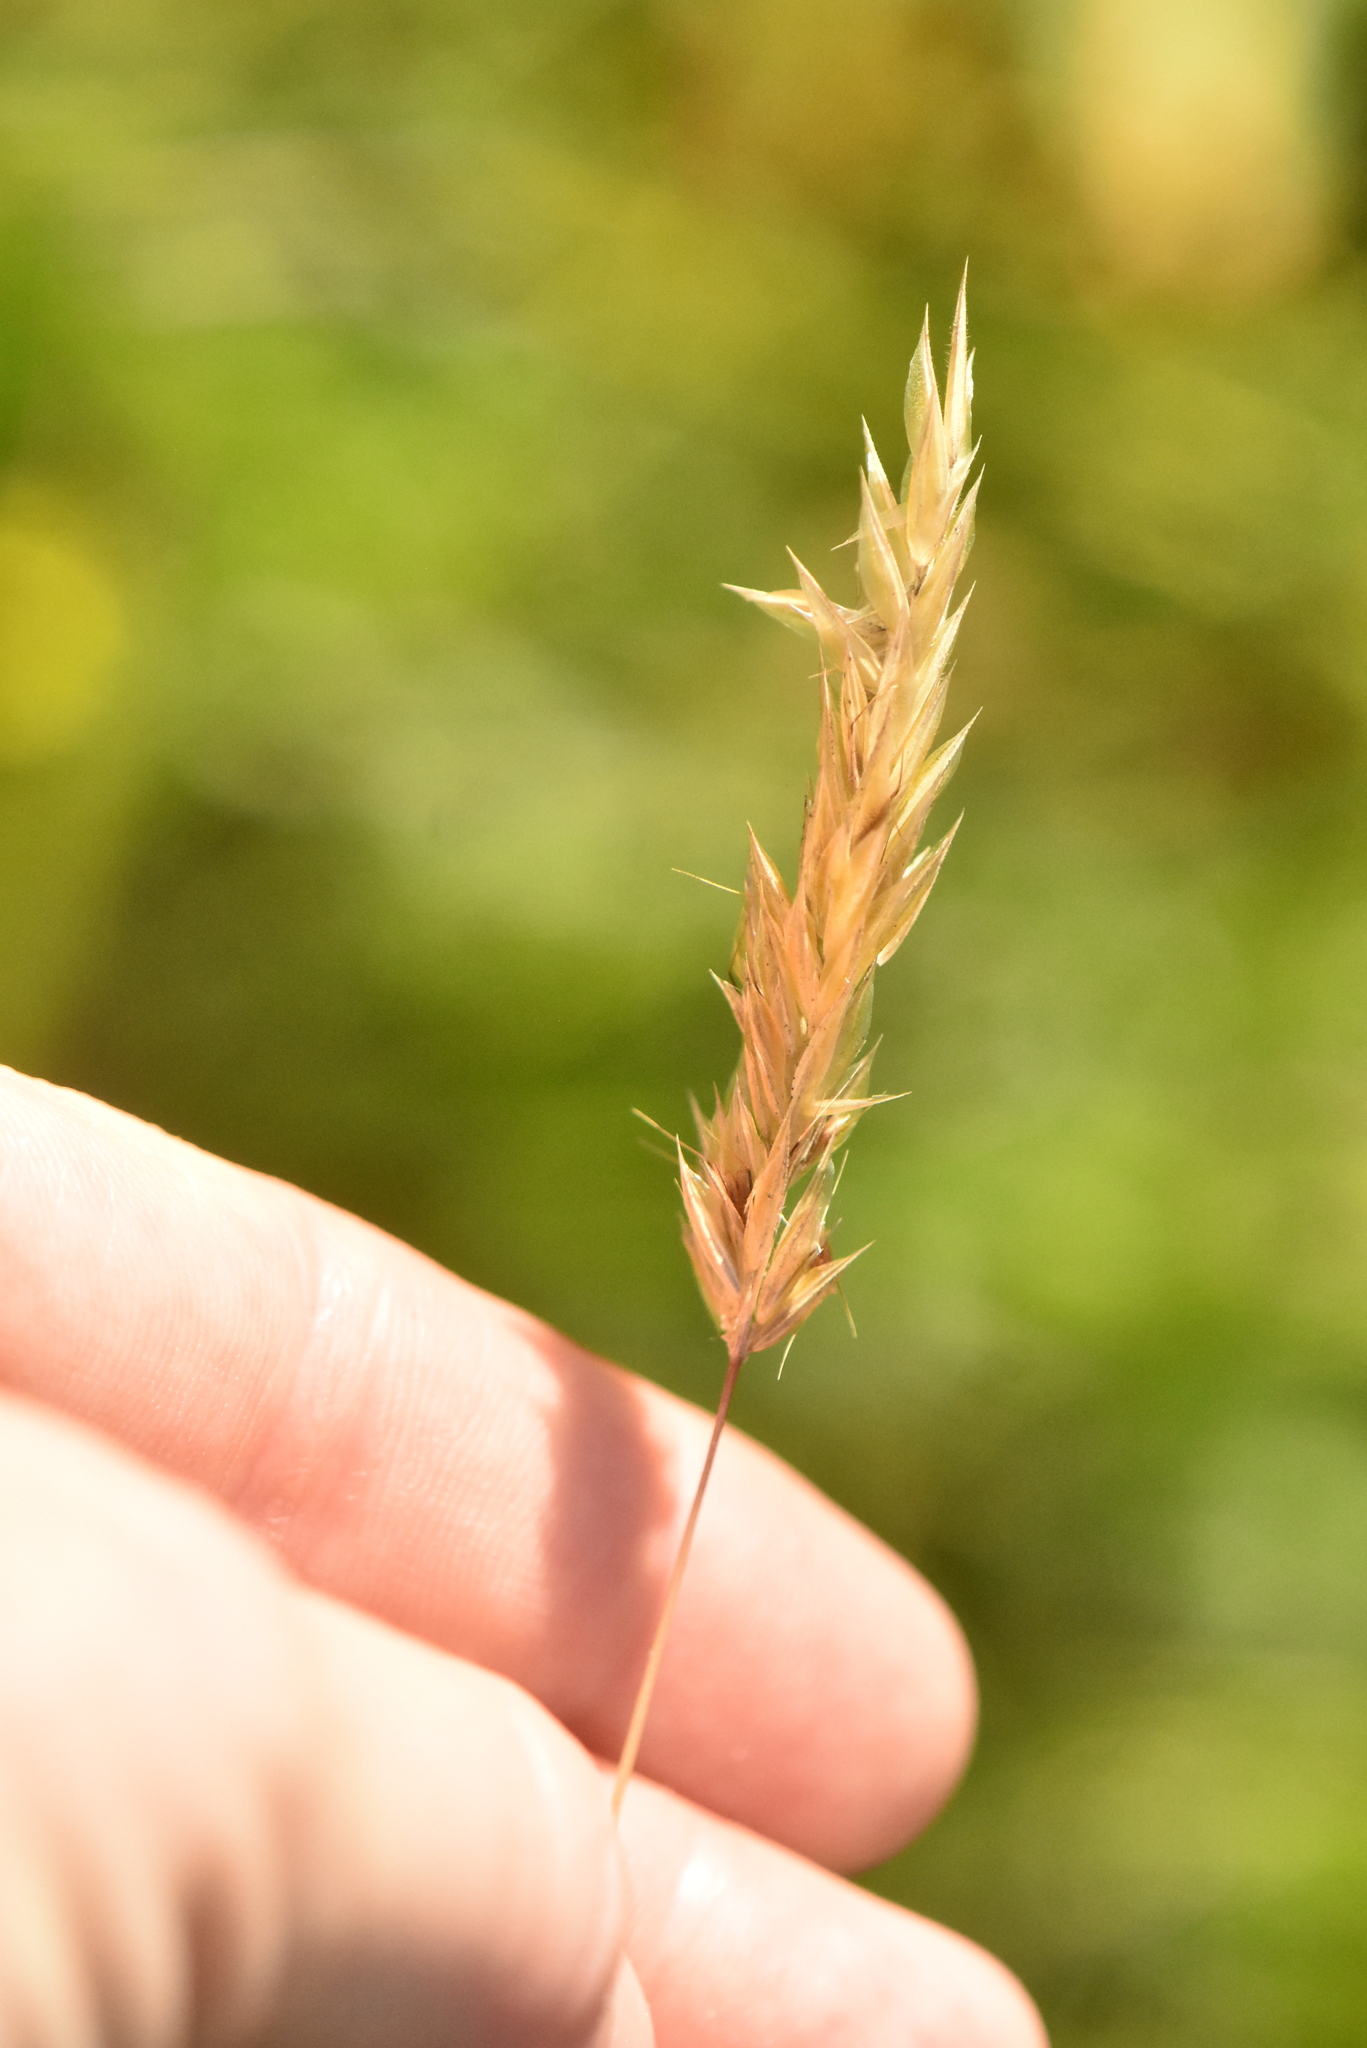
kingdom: Plantae
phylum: Tracheophyta
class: Liliopsida
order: Poales
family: Poaceae
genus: Anthoxanthum
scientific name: Anthoxanthum odoratum
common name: Sweet vernalgrass
